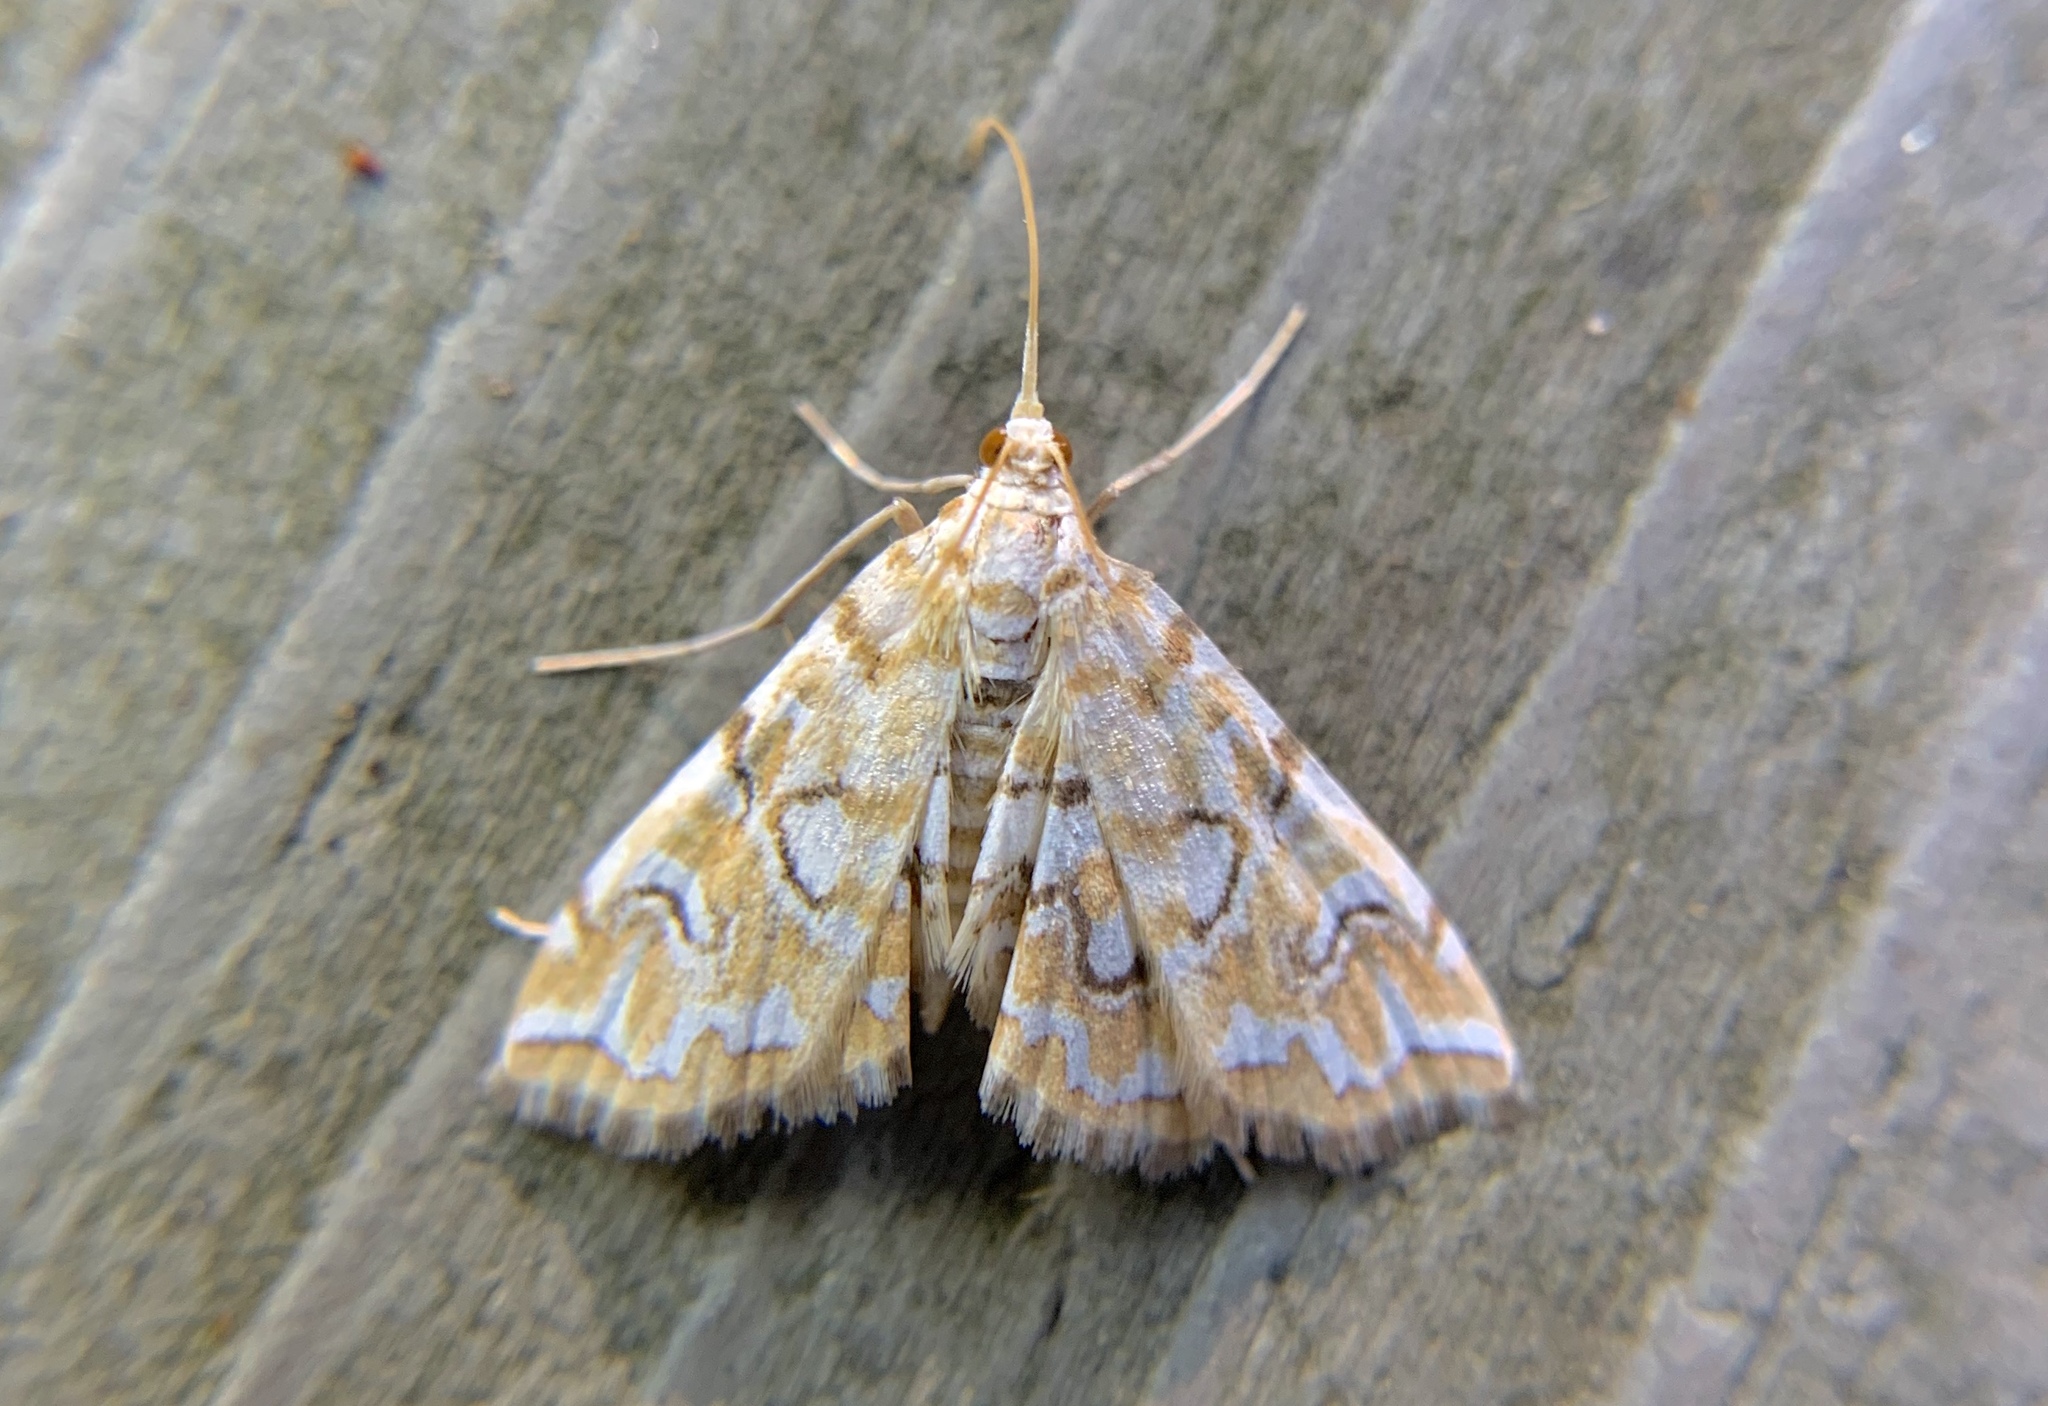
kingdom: Animalia
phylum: Arthropoda
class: Insecta
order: Lepidoptera
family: Crambidae
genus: Elophila
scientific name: Elophila icciusalis
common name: Pondside pyralid moth
